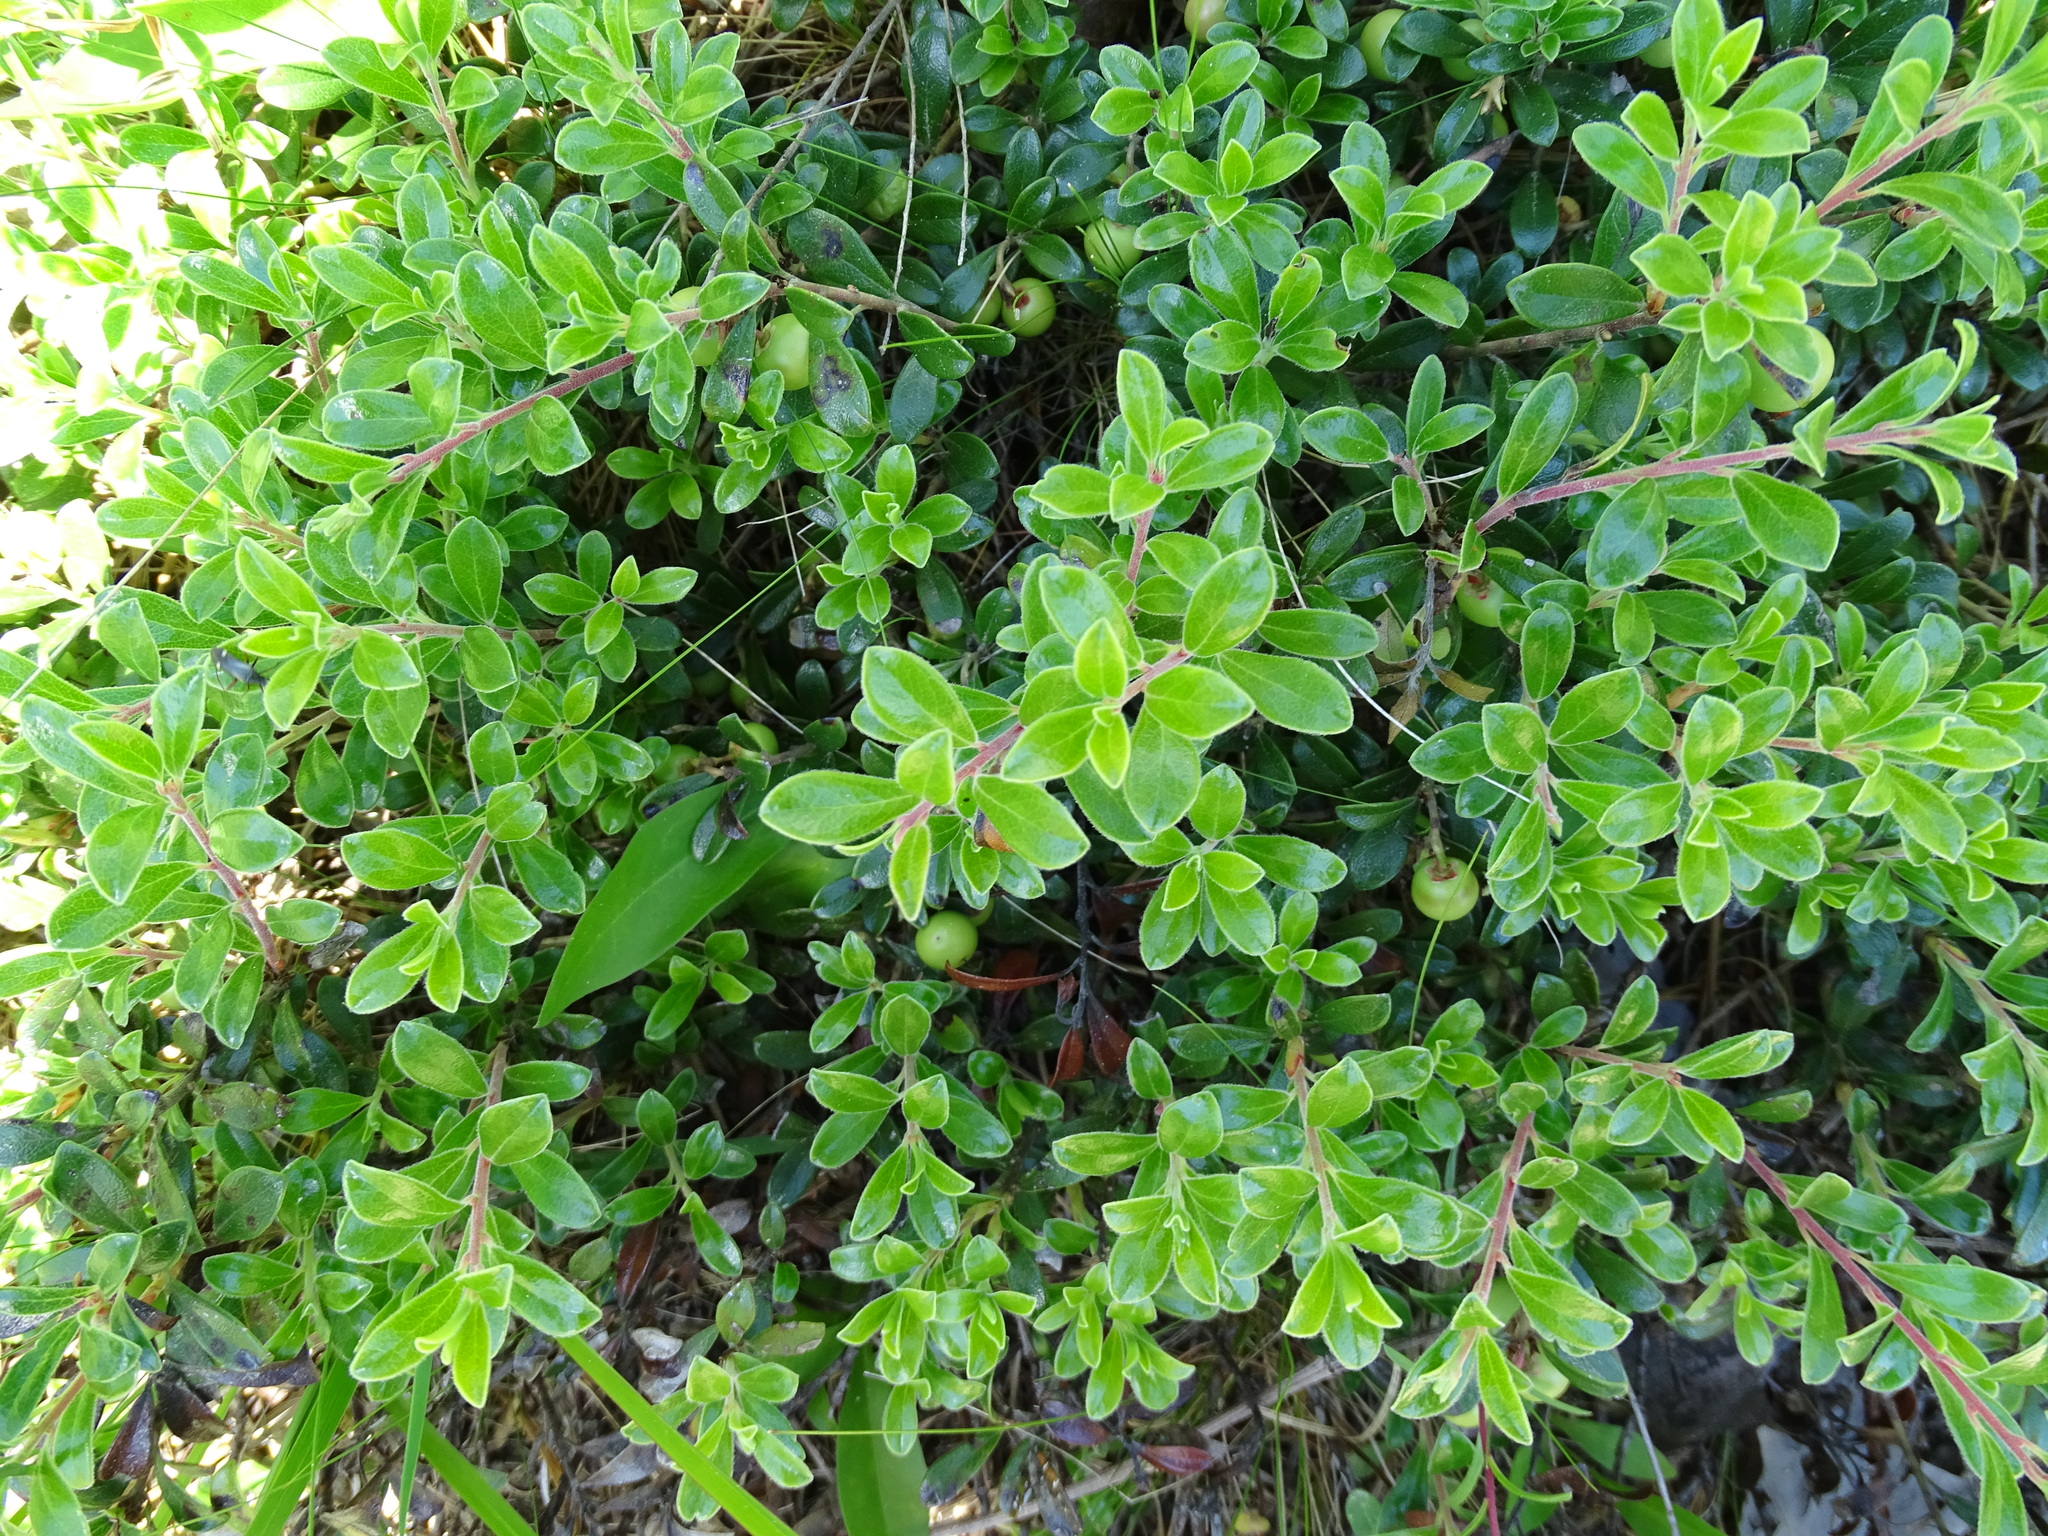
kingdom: Plantae
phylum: Tracheophyta
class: Magnoliopsida
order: Ericales
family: Ericaceae
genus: Arctostaphylos
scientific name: Arctostaphylos uva-ursi
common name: Bearberry
